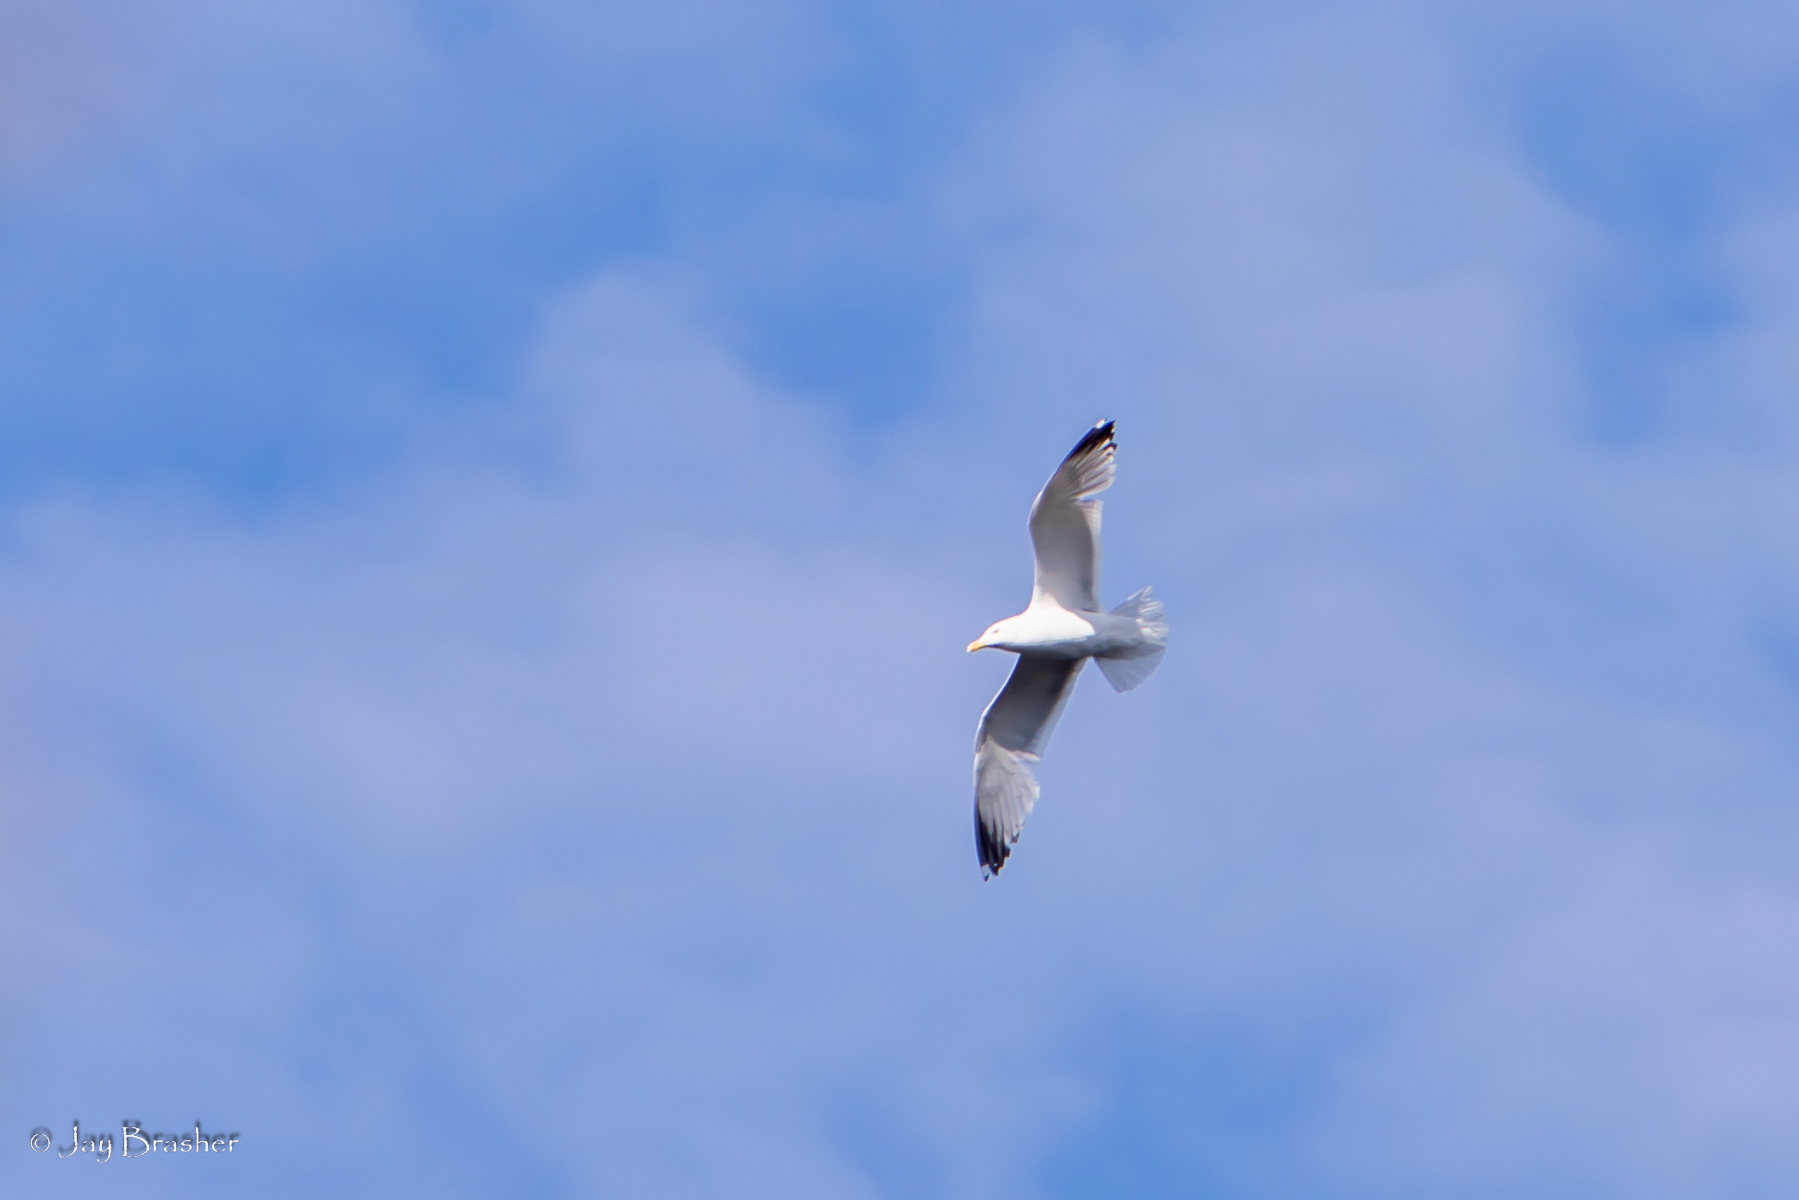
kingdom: Animalia
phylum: Chordata
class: Aves
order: Charadriiformes
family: Laridae
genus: Larus
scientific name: Larus argentatus
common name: Herring gull
